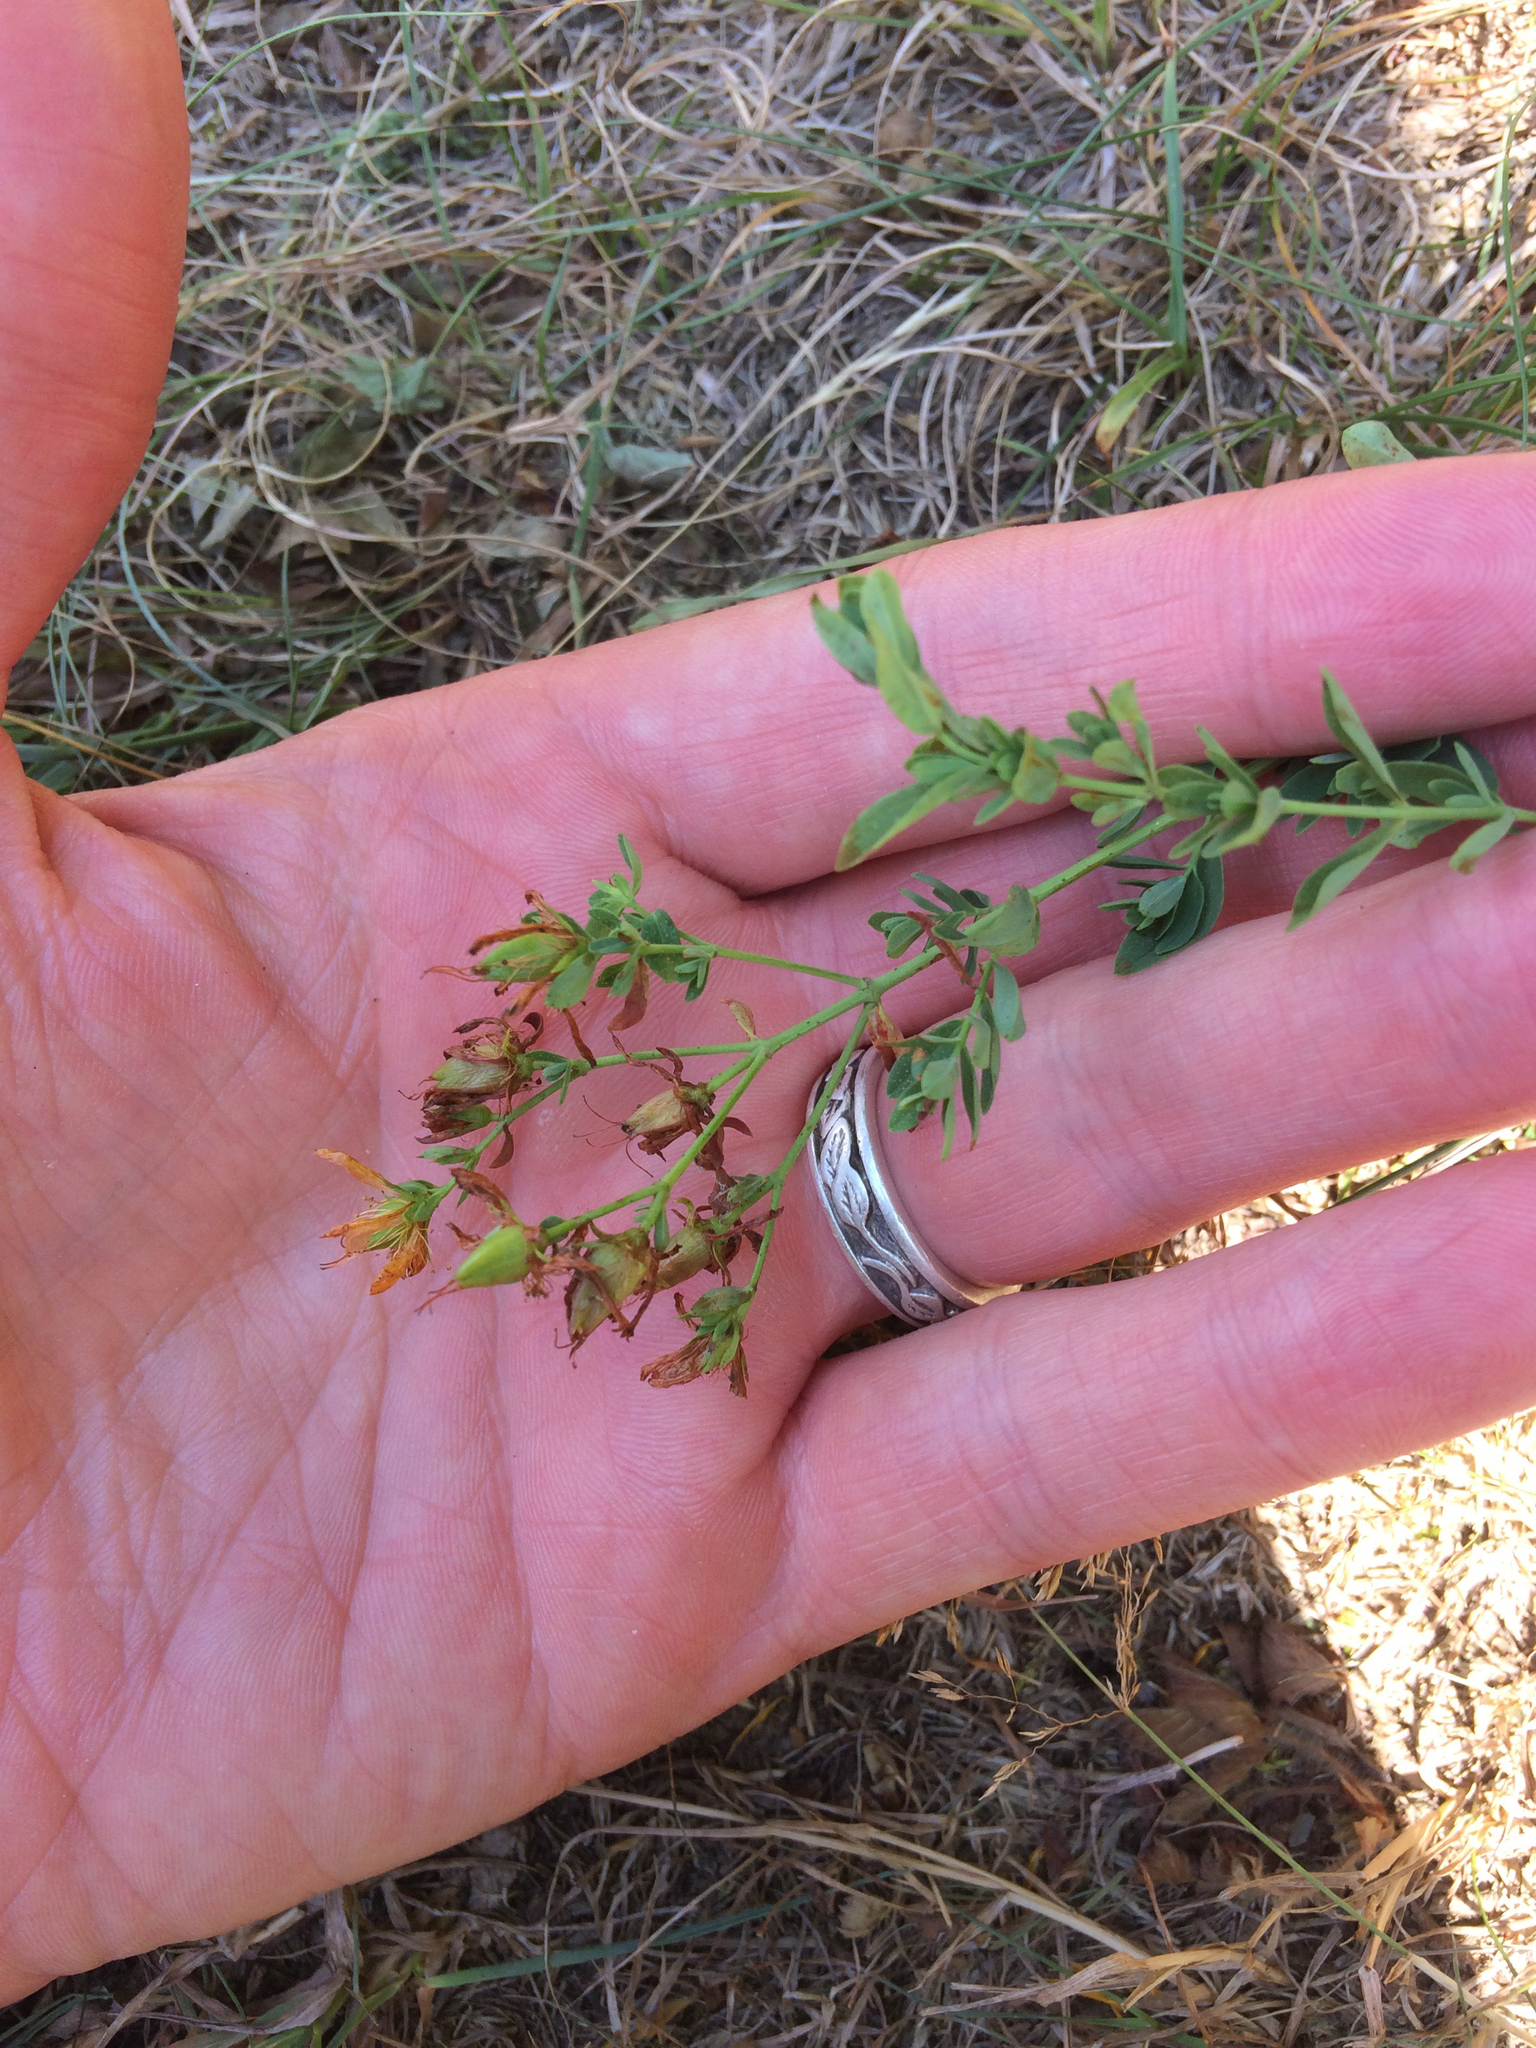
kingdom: Plantae
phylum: Tracheophyta
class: Magnoliopsida
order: Malpighiales
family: Hypericaceae
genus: Hypericum
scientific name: Hypericum perforatum
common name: Common st. johnswort
